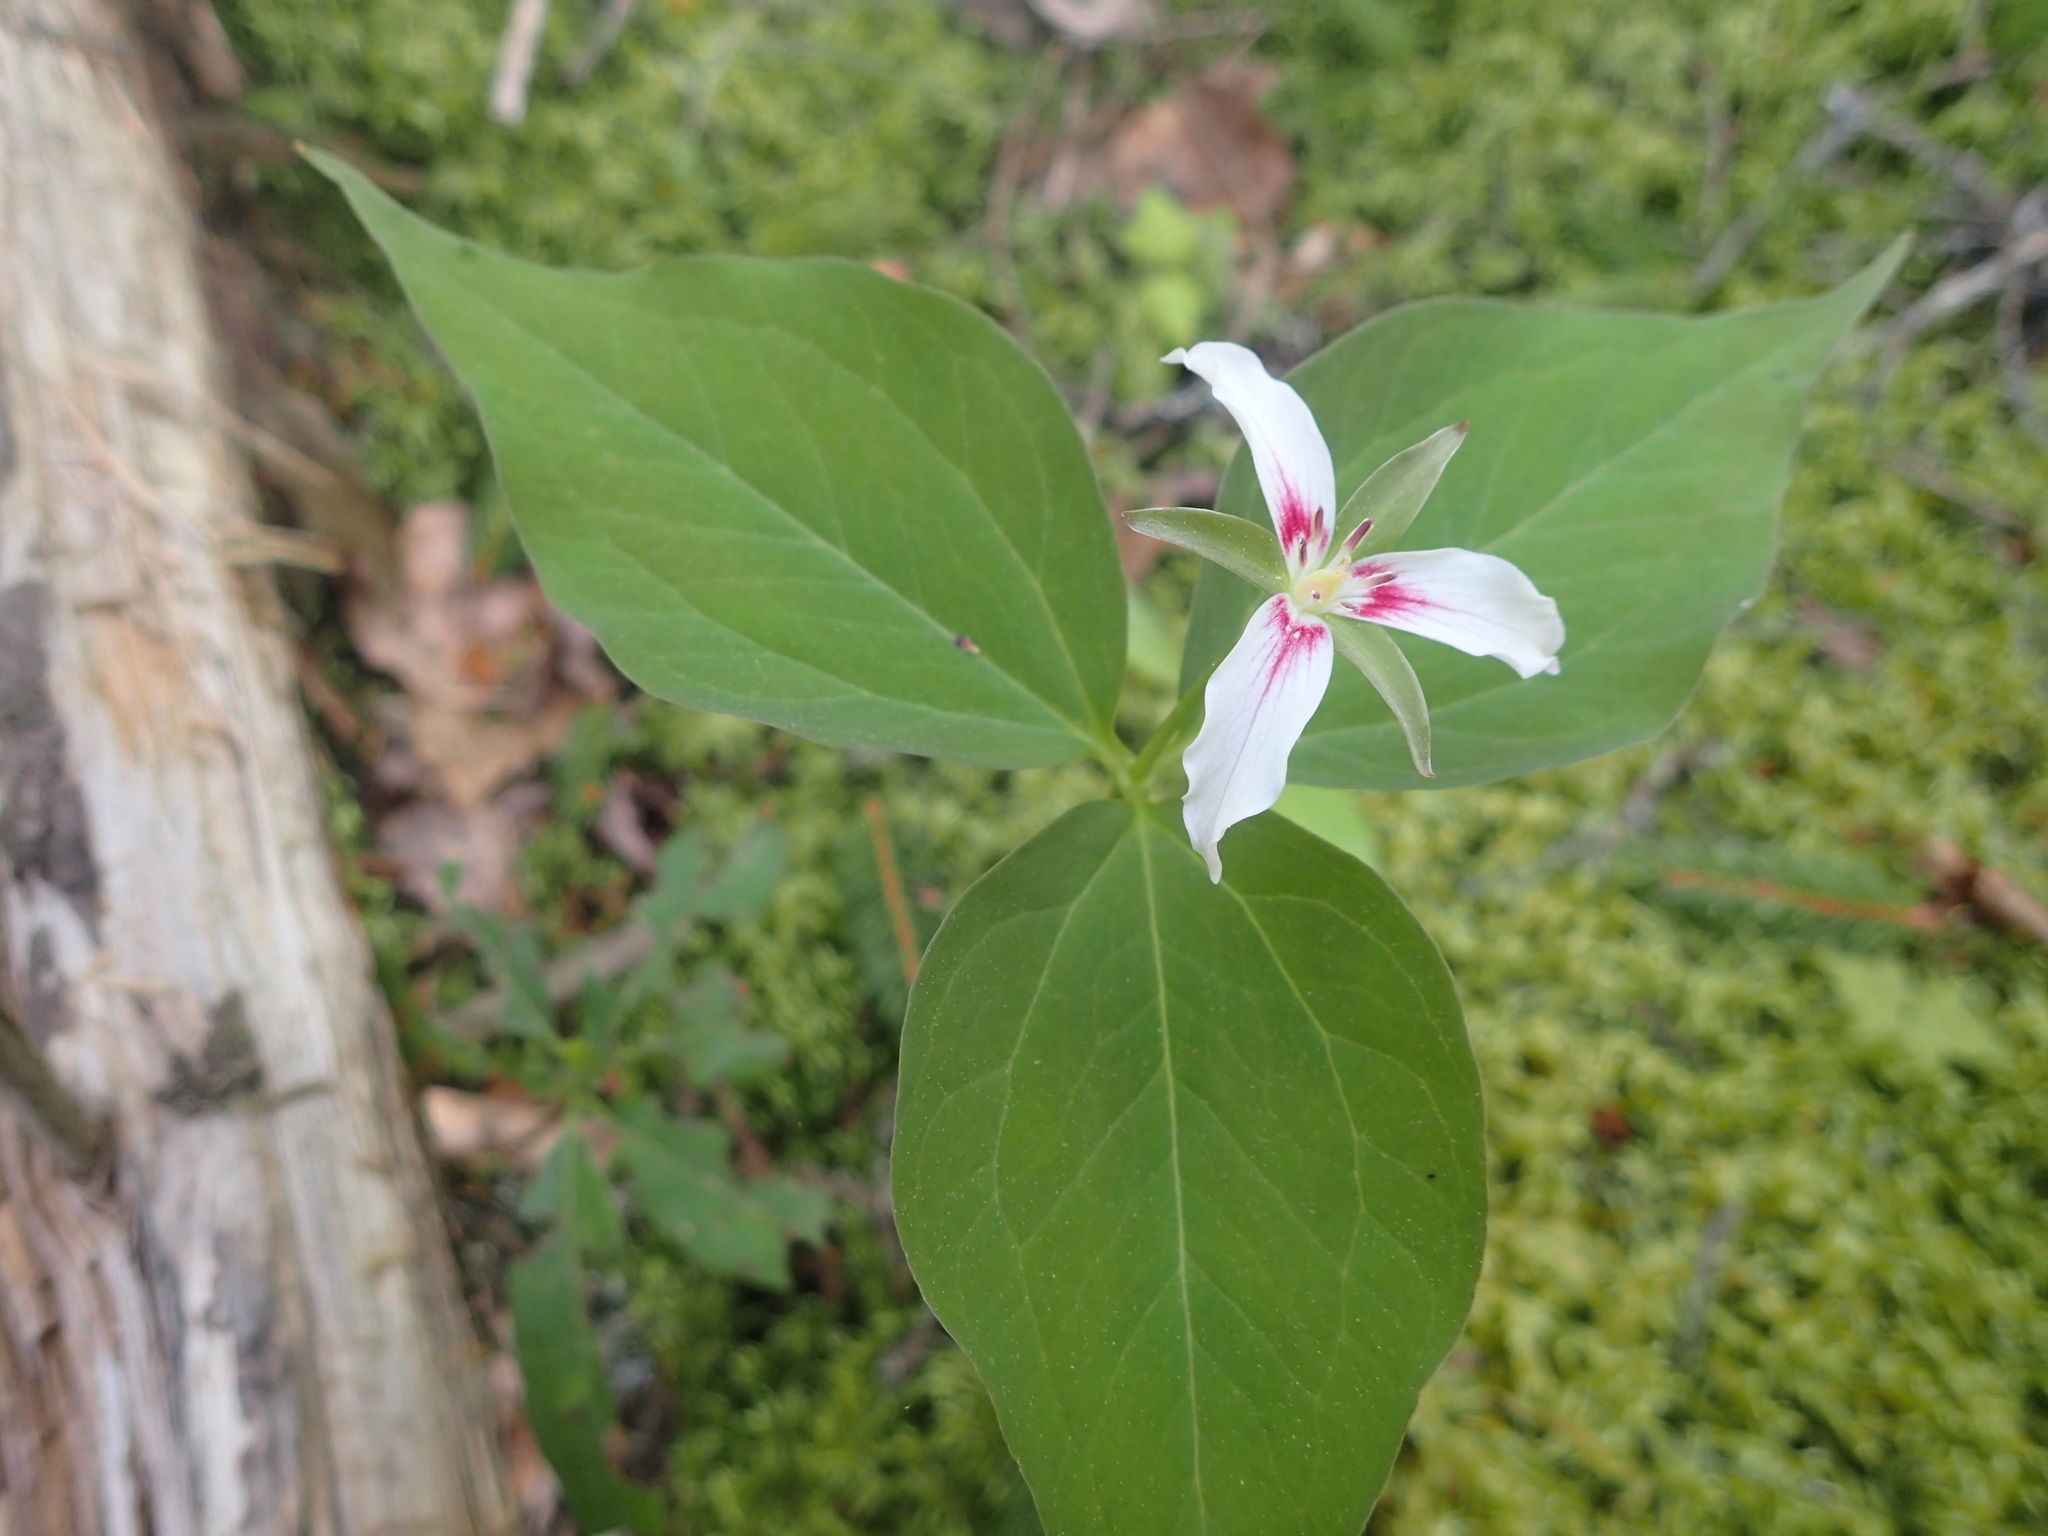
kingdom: Plantae
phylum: Tracheophyta
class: Liliopsida
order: Liliales
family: Melanthiaceae
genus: Trillium
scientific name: Trillium undulatum
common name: Paint trillium
